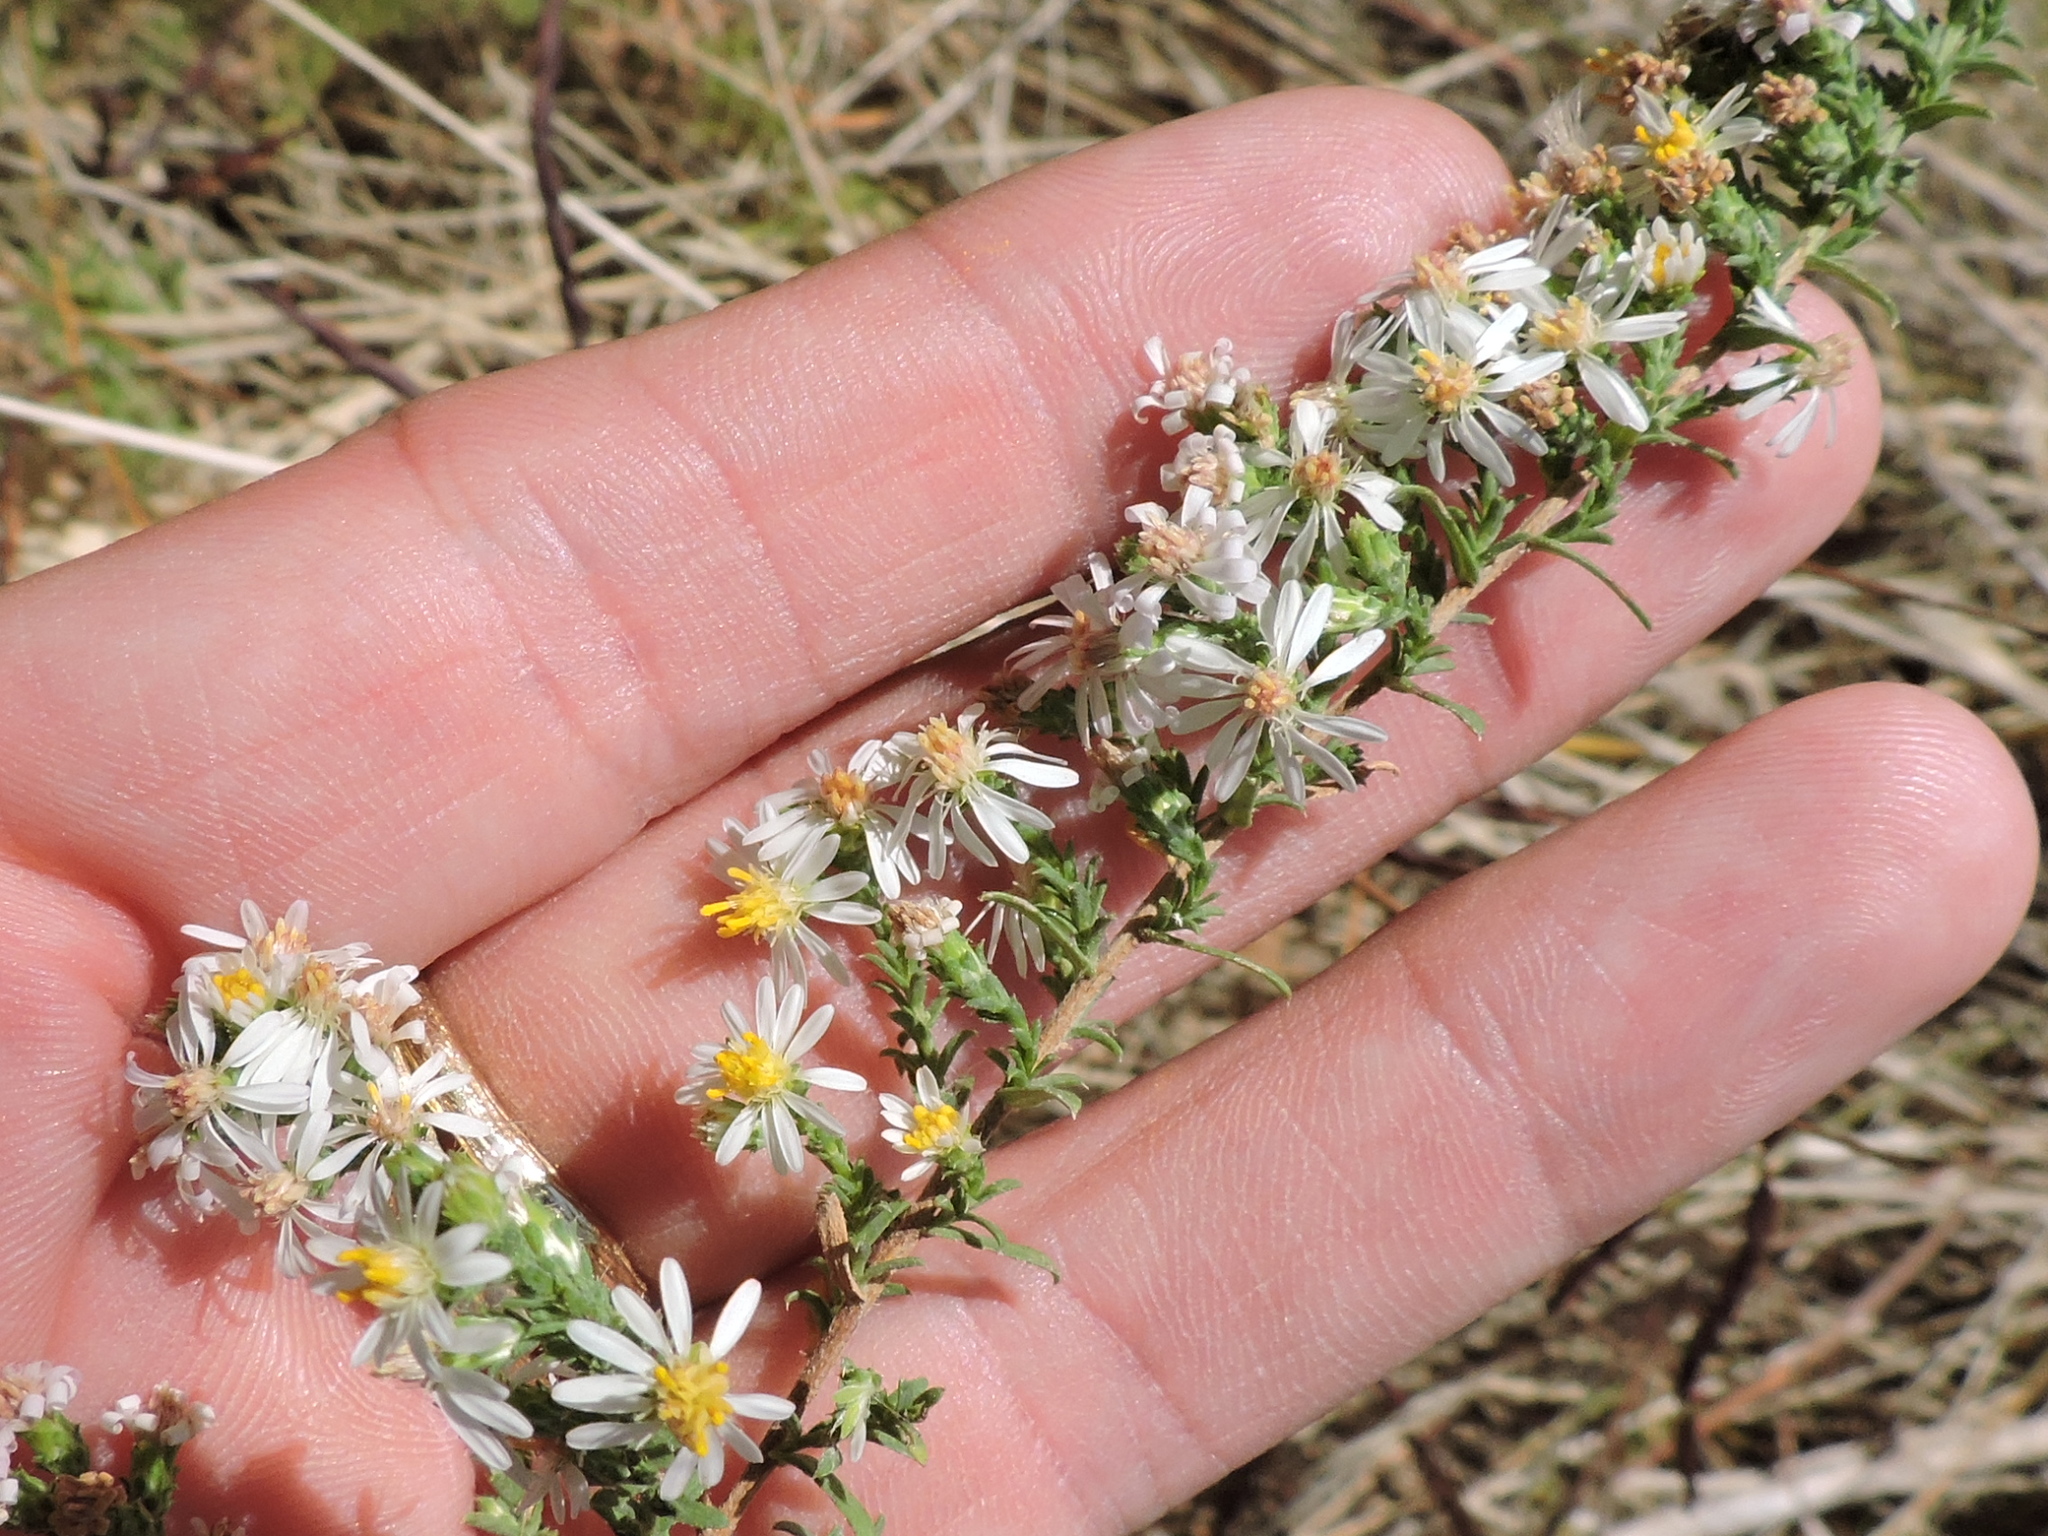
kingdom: Plantae
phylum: Tracheophyta
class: Magnoliopsida
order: Asterales
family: Asteraceae
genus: Symphyotrichum
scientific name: Symphyotrichum ericoides
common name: Heath aster
